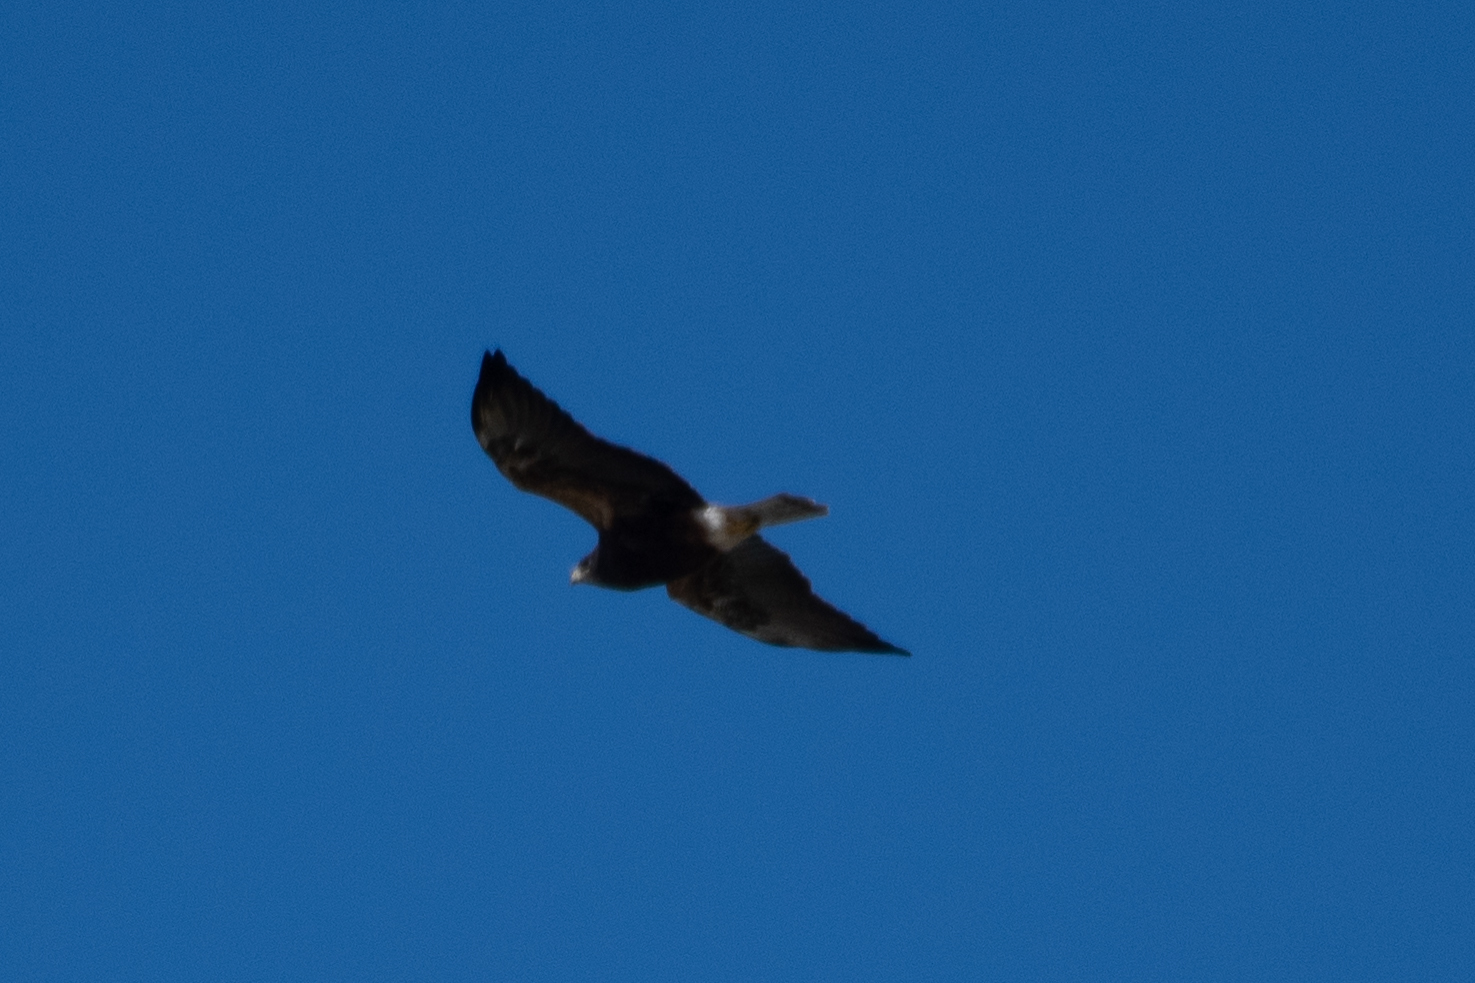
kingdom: Animalia
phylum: Chordata
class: Aves
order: Accipitriformes
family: Accipitridae
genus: Buteo
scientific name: Buteo swainsoni
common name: Swainson's hawk
